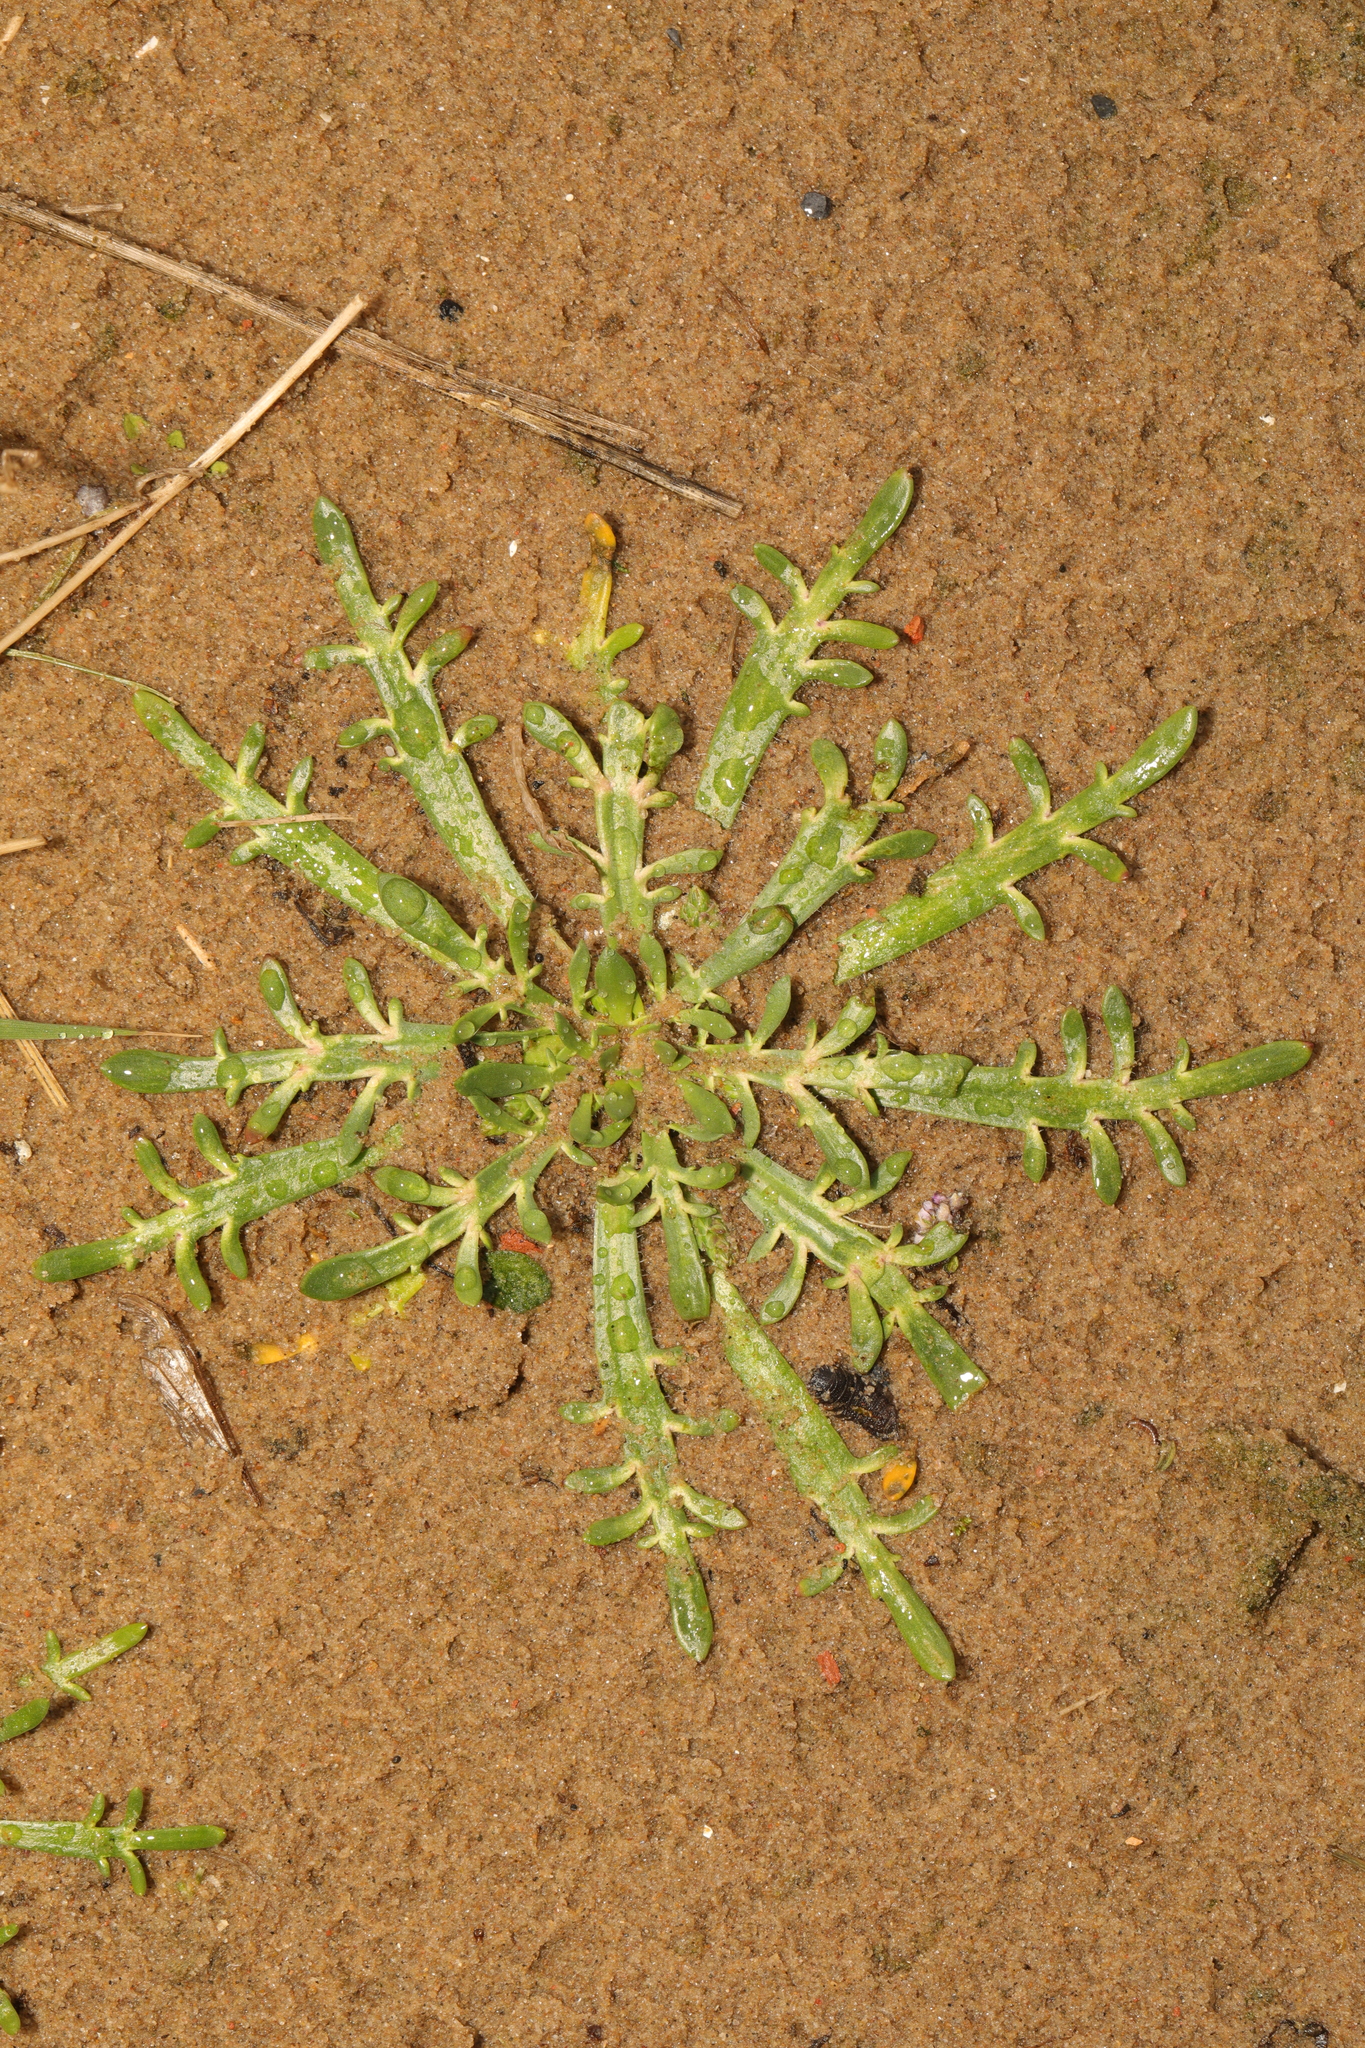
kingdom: Plantae
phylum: Tracheophyta
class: Magnoliopsida
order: Lamiales
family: Plantaginaceae
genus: Plantago
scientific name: Plantago coronopus
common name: Buck's-horn plantain
